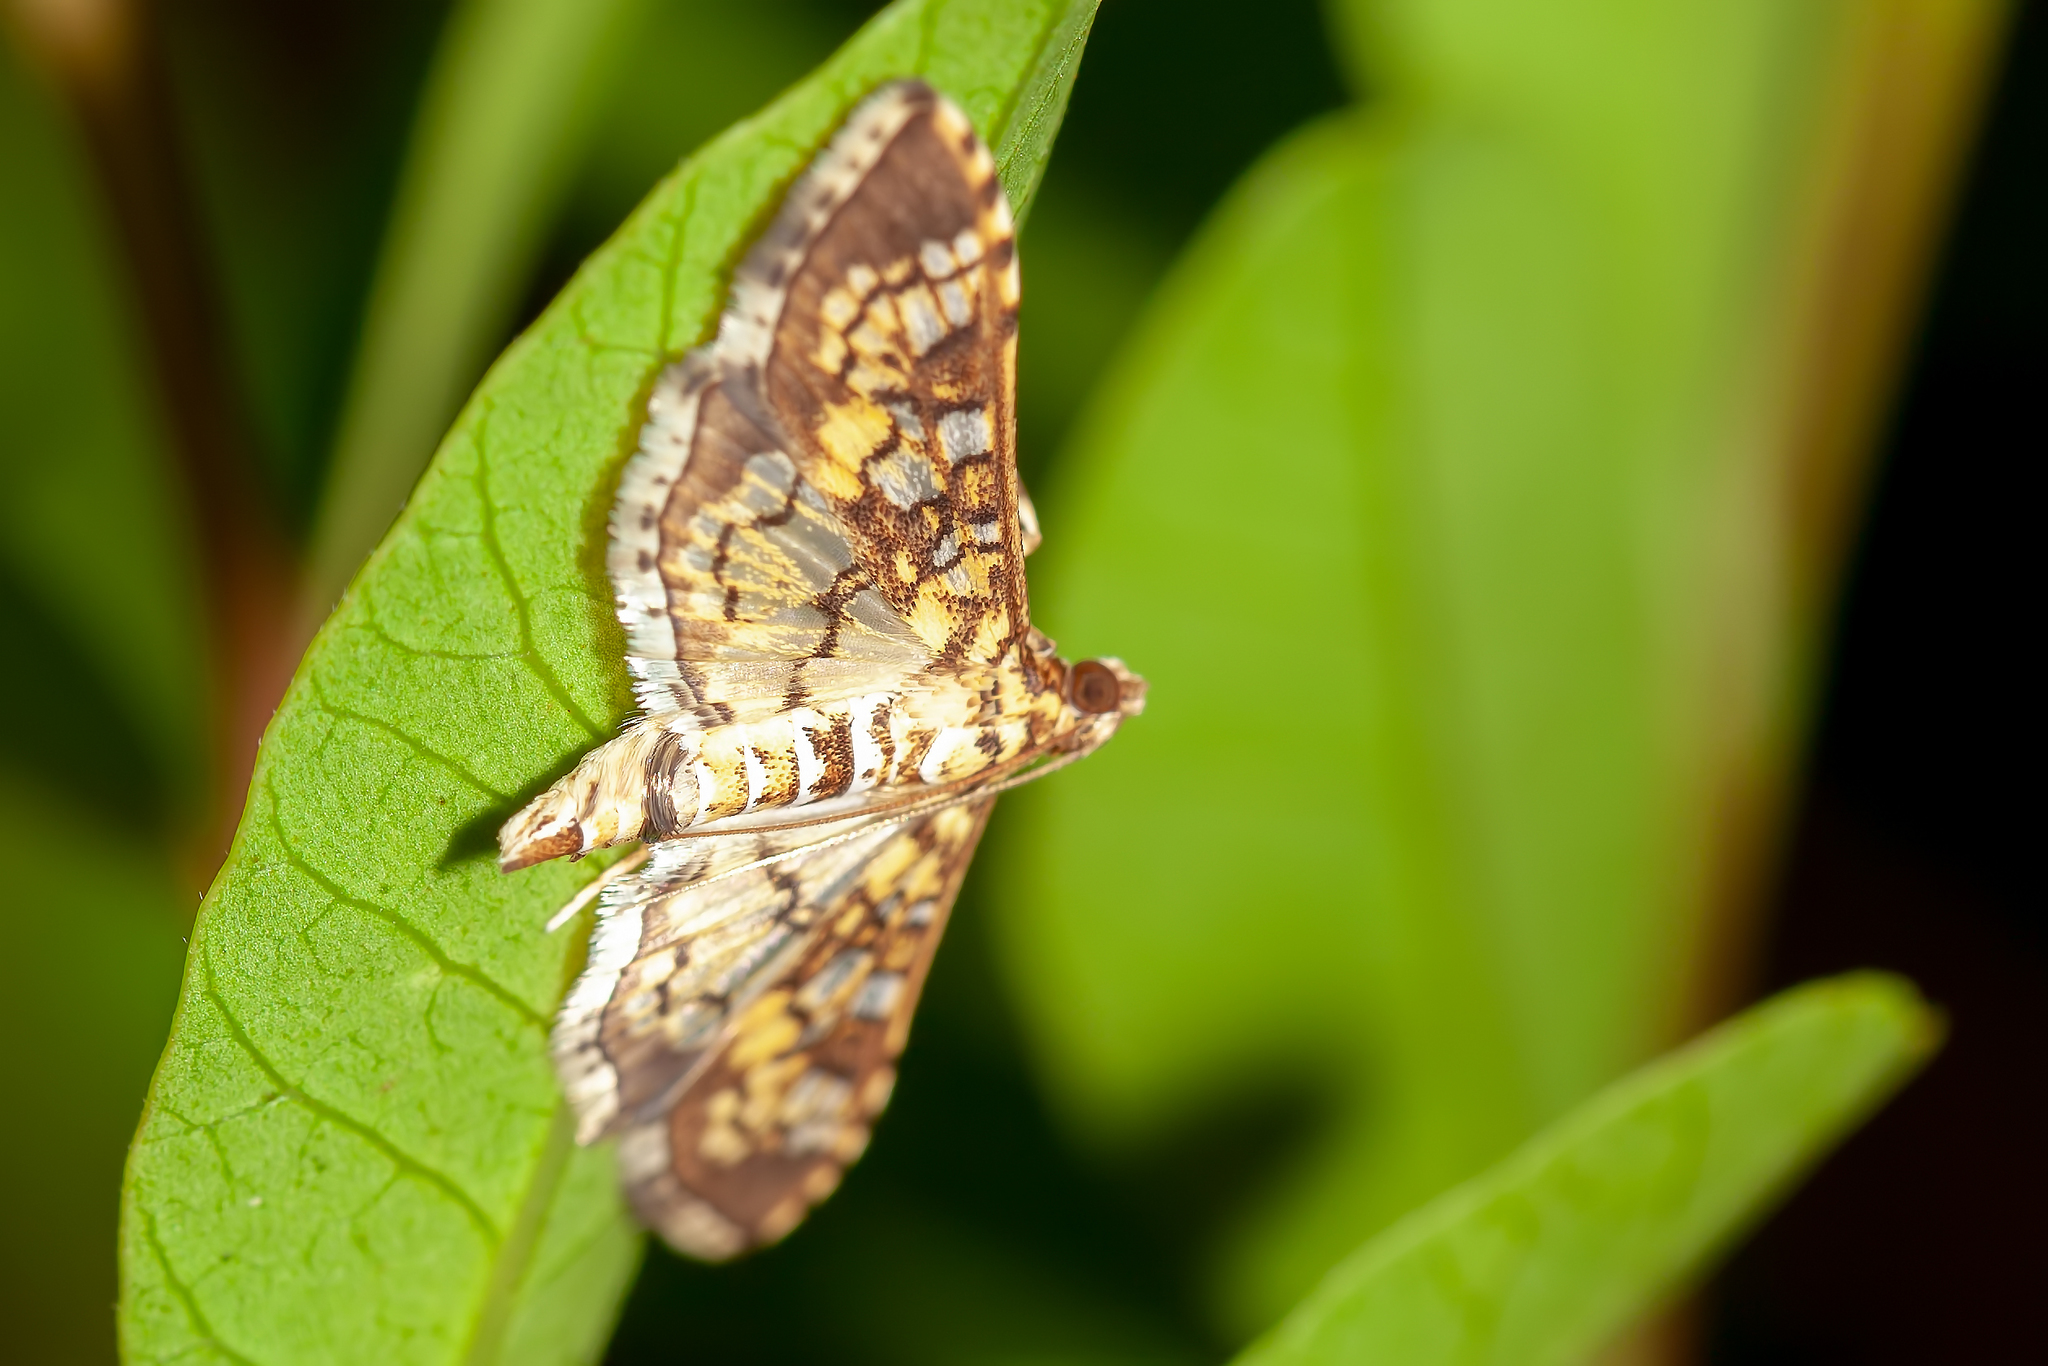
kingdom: Animalia
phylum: Arthropoda
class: Insecta
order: Lepidoptera
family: Crambidae
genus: Samea
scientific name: Samea ecclesialis
